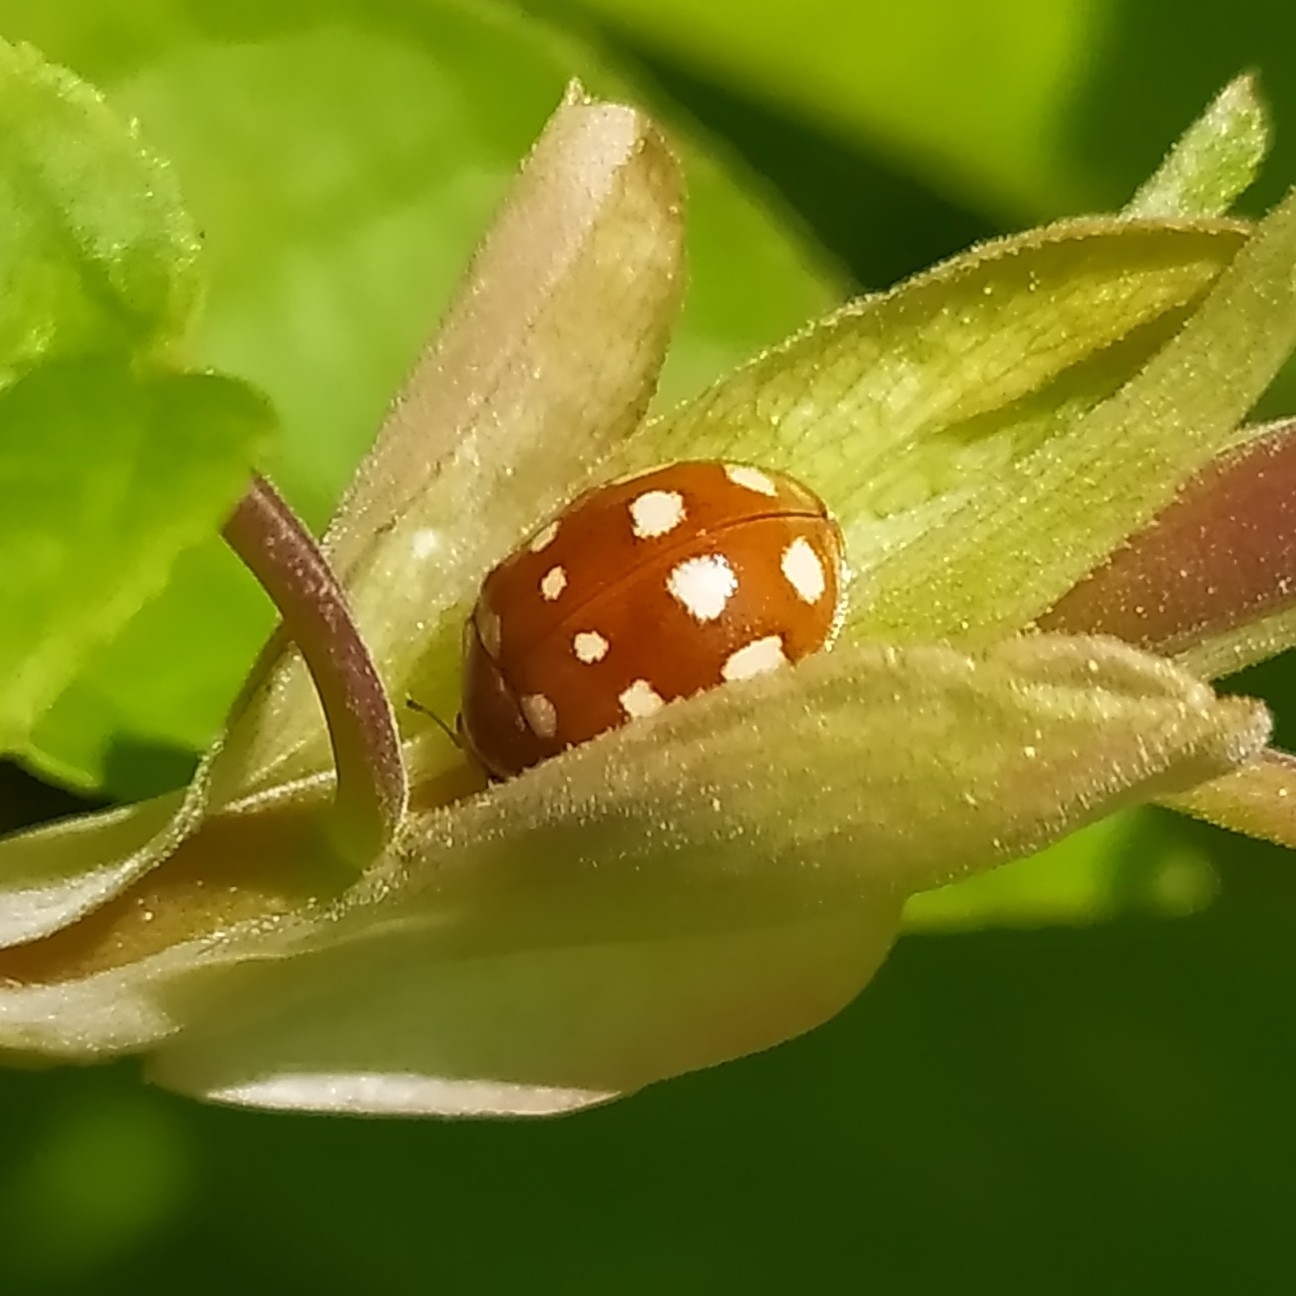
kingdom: Animalia
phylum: Arthropoda
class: Insecta
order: Coleoptera
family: Coccinellidae
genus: Calvia
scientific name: Calvia quatuordecimguttata
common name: Cream-spot ladybird
